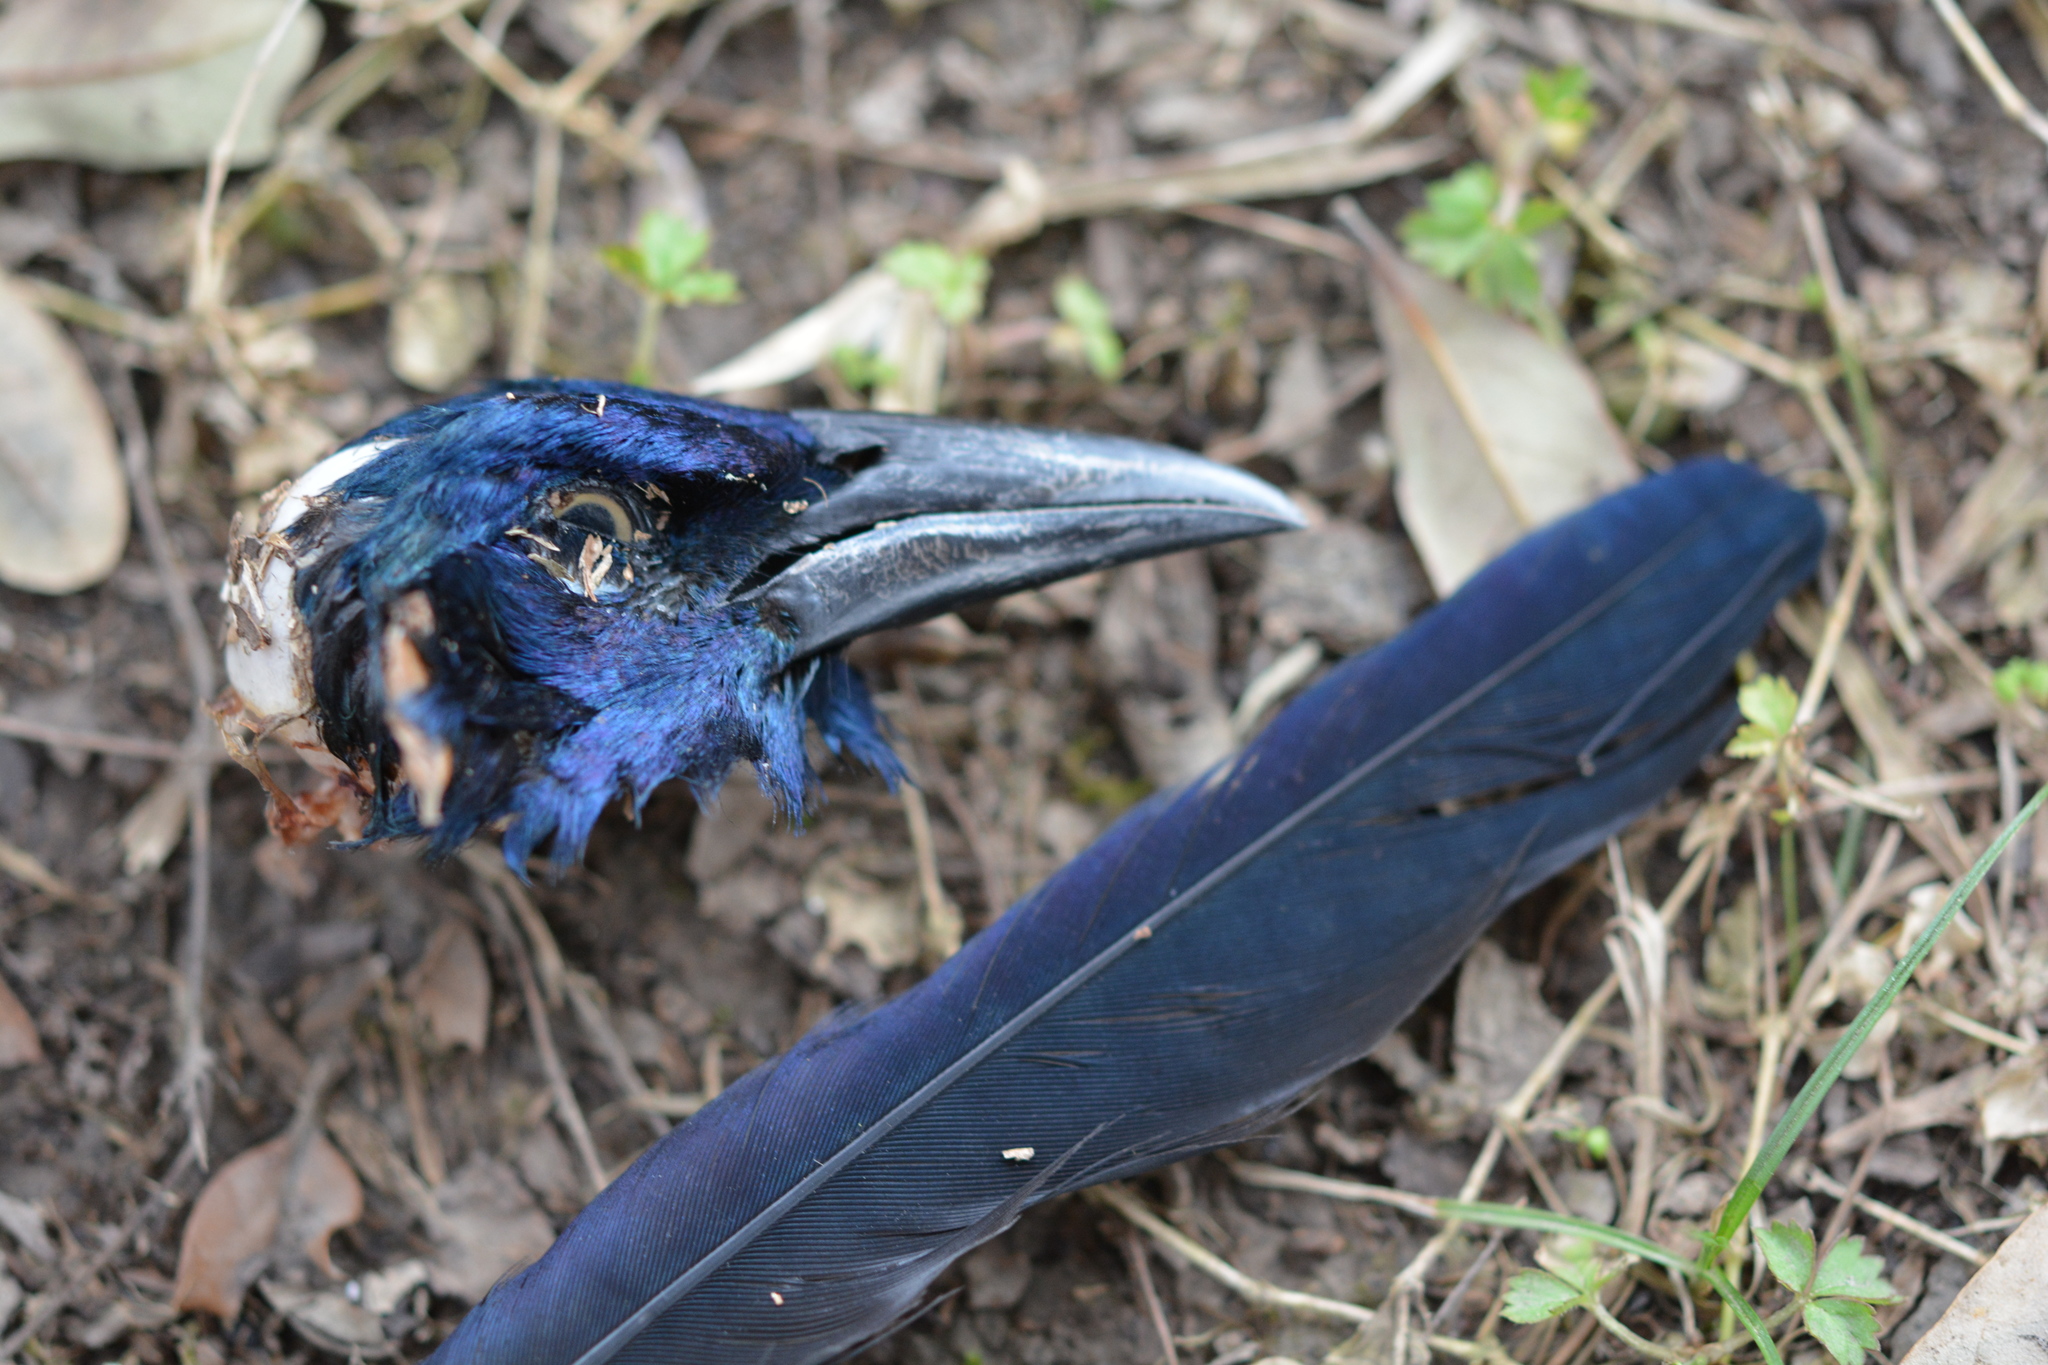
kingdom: Animalia
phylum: Chordata
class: Aves
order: Passeriformes
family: Icteridae
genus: Quiscalus
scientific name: Quiscalus quiscula
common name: Common grackle
